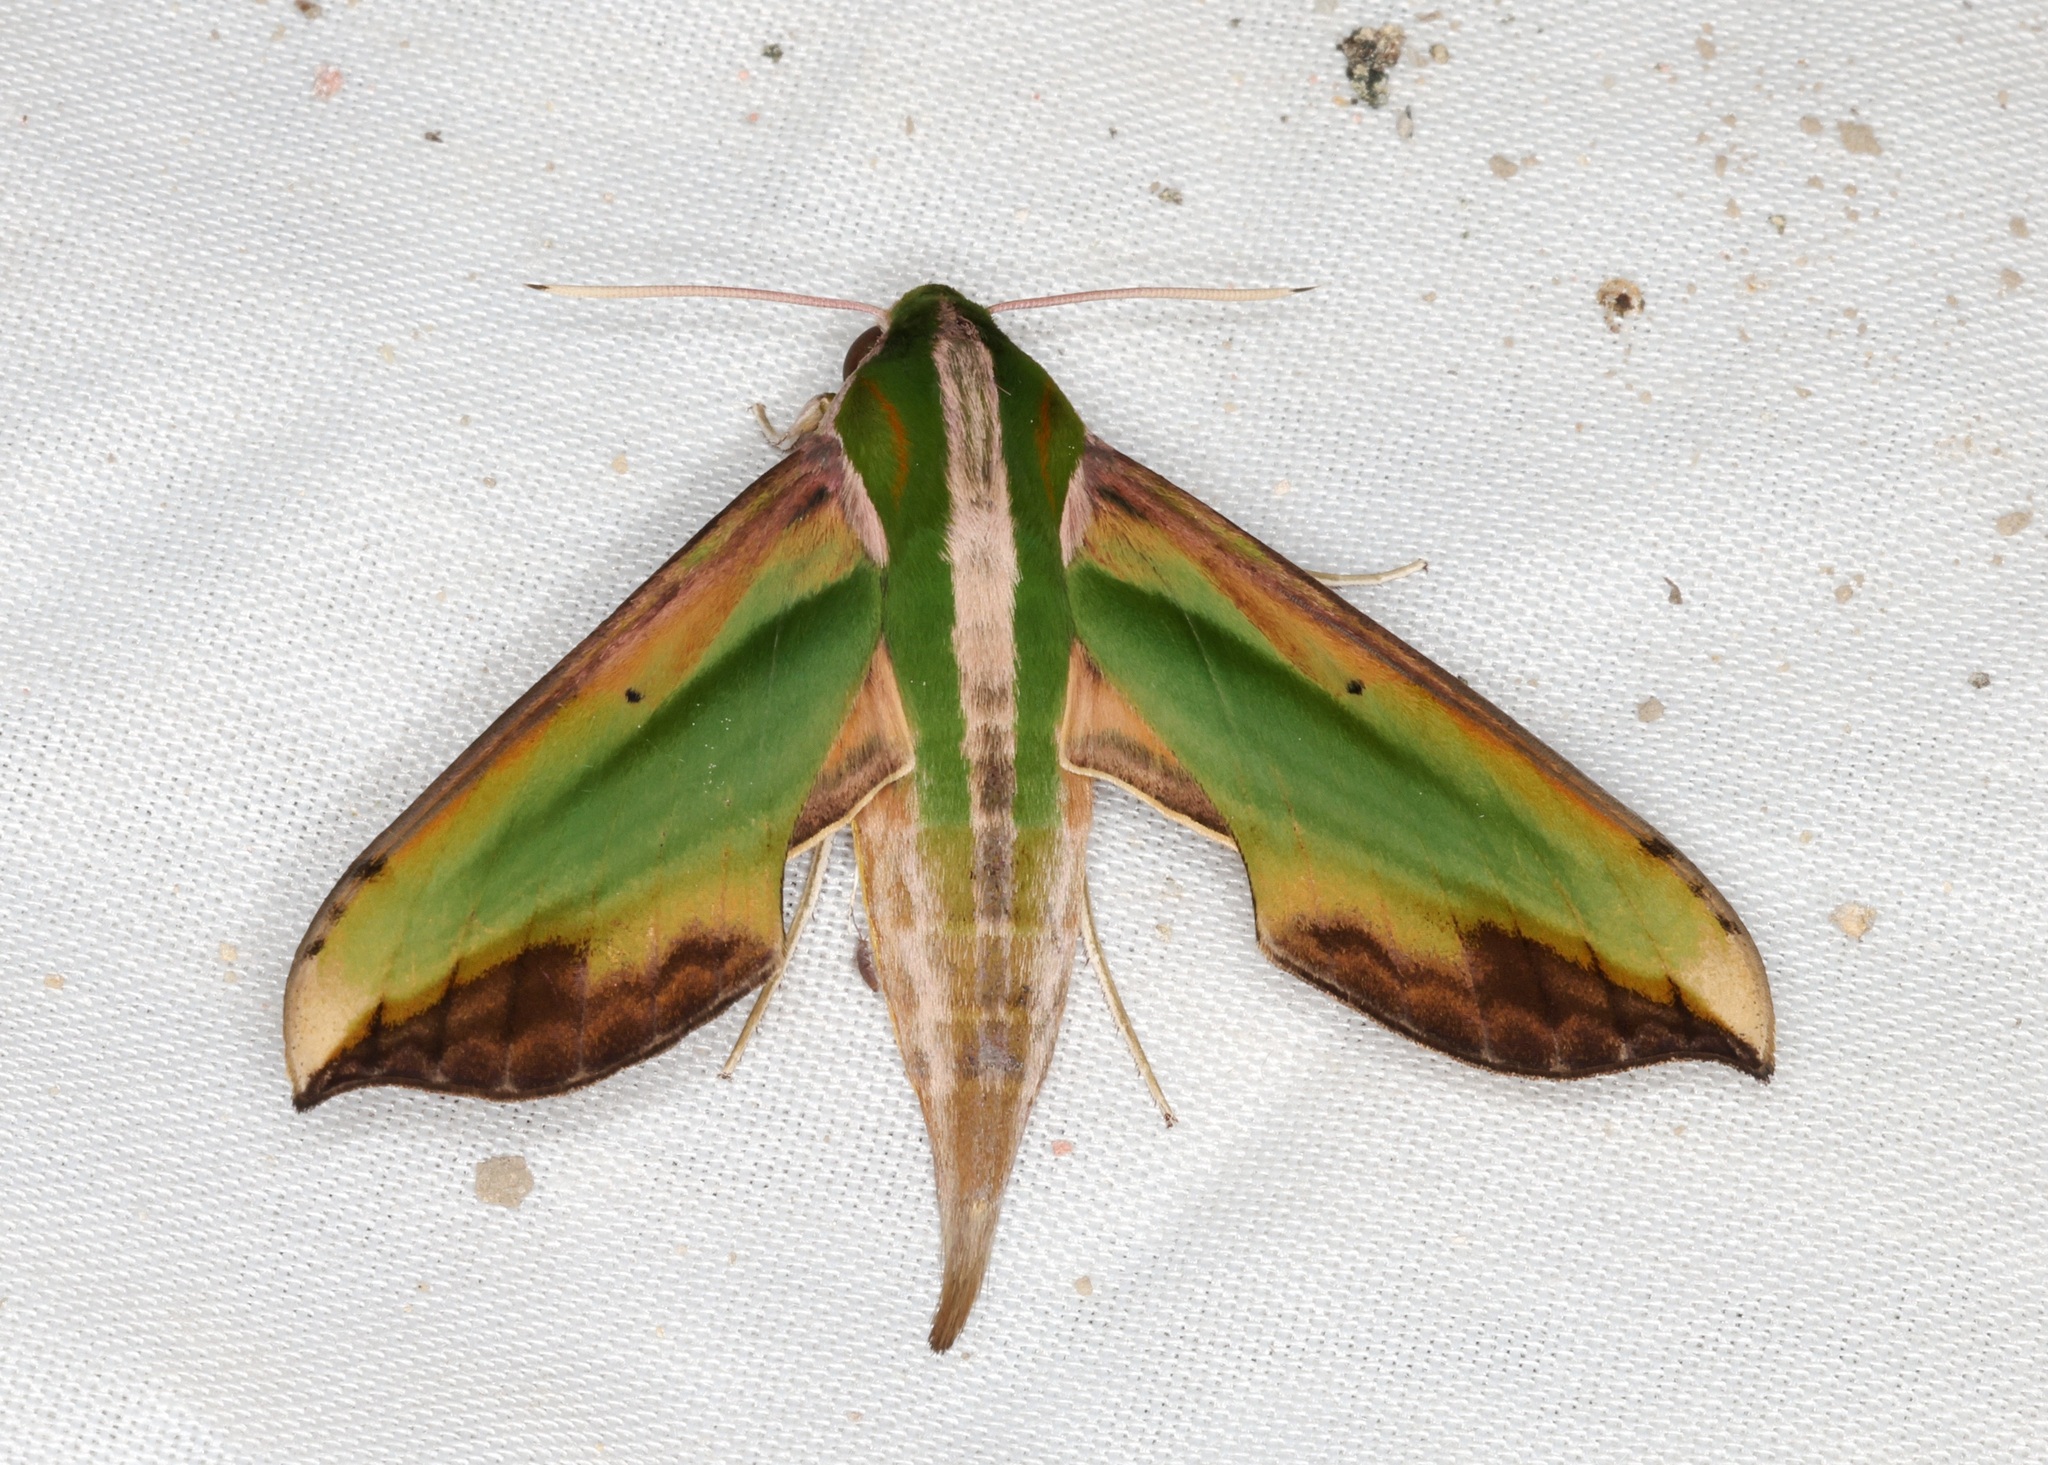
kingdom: Animalia
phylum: Arthropoda
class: Insecta
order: Lepidoptera
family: Sphingidae
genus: Pergesa
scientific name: Pergesa acteus
